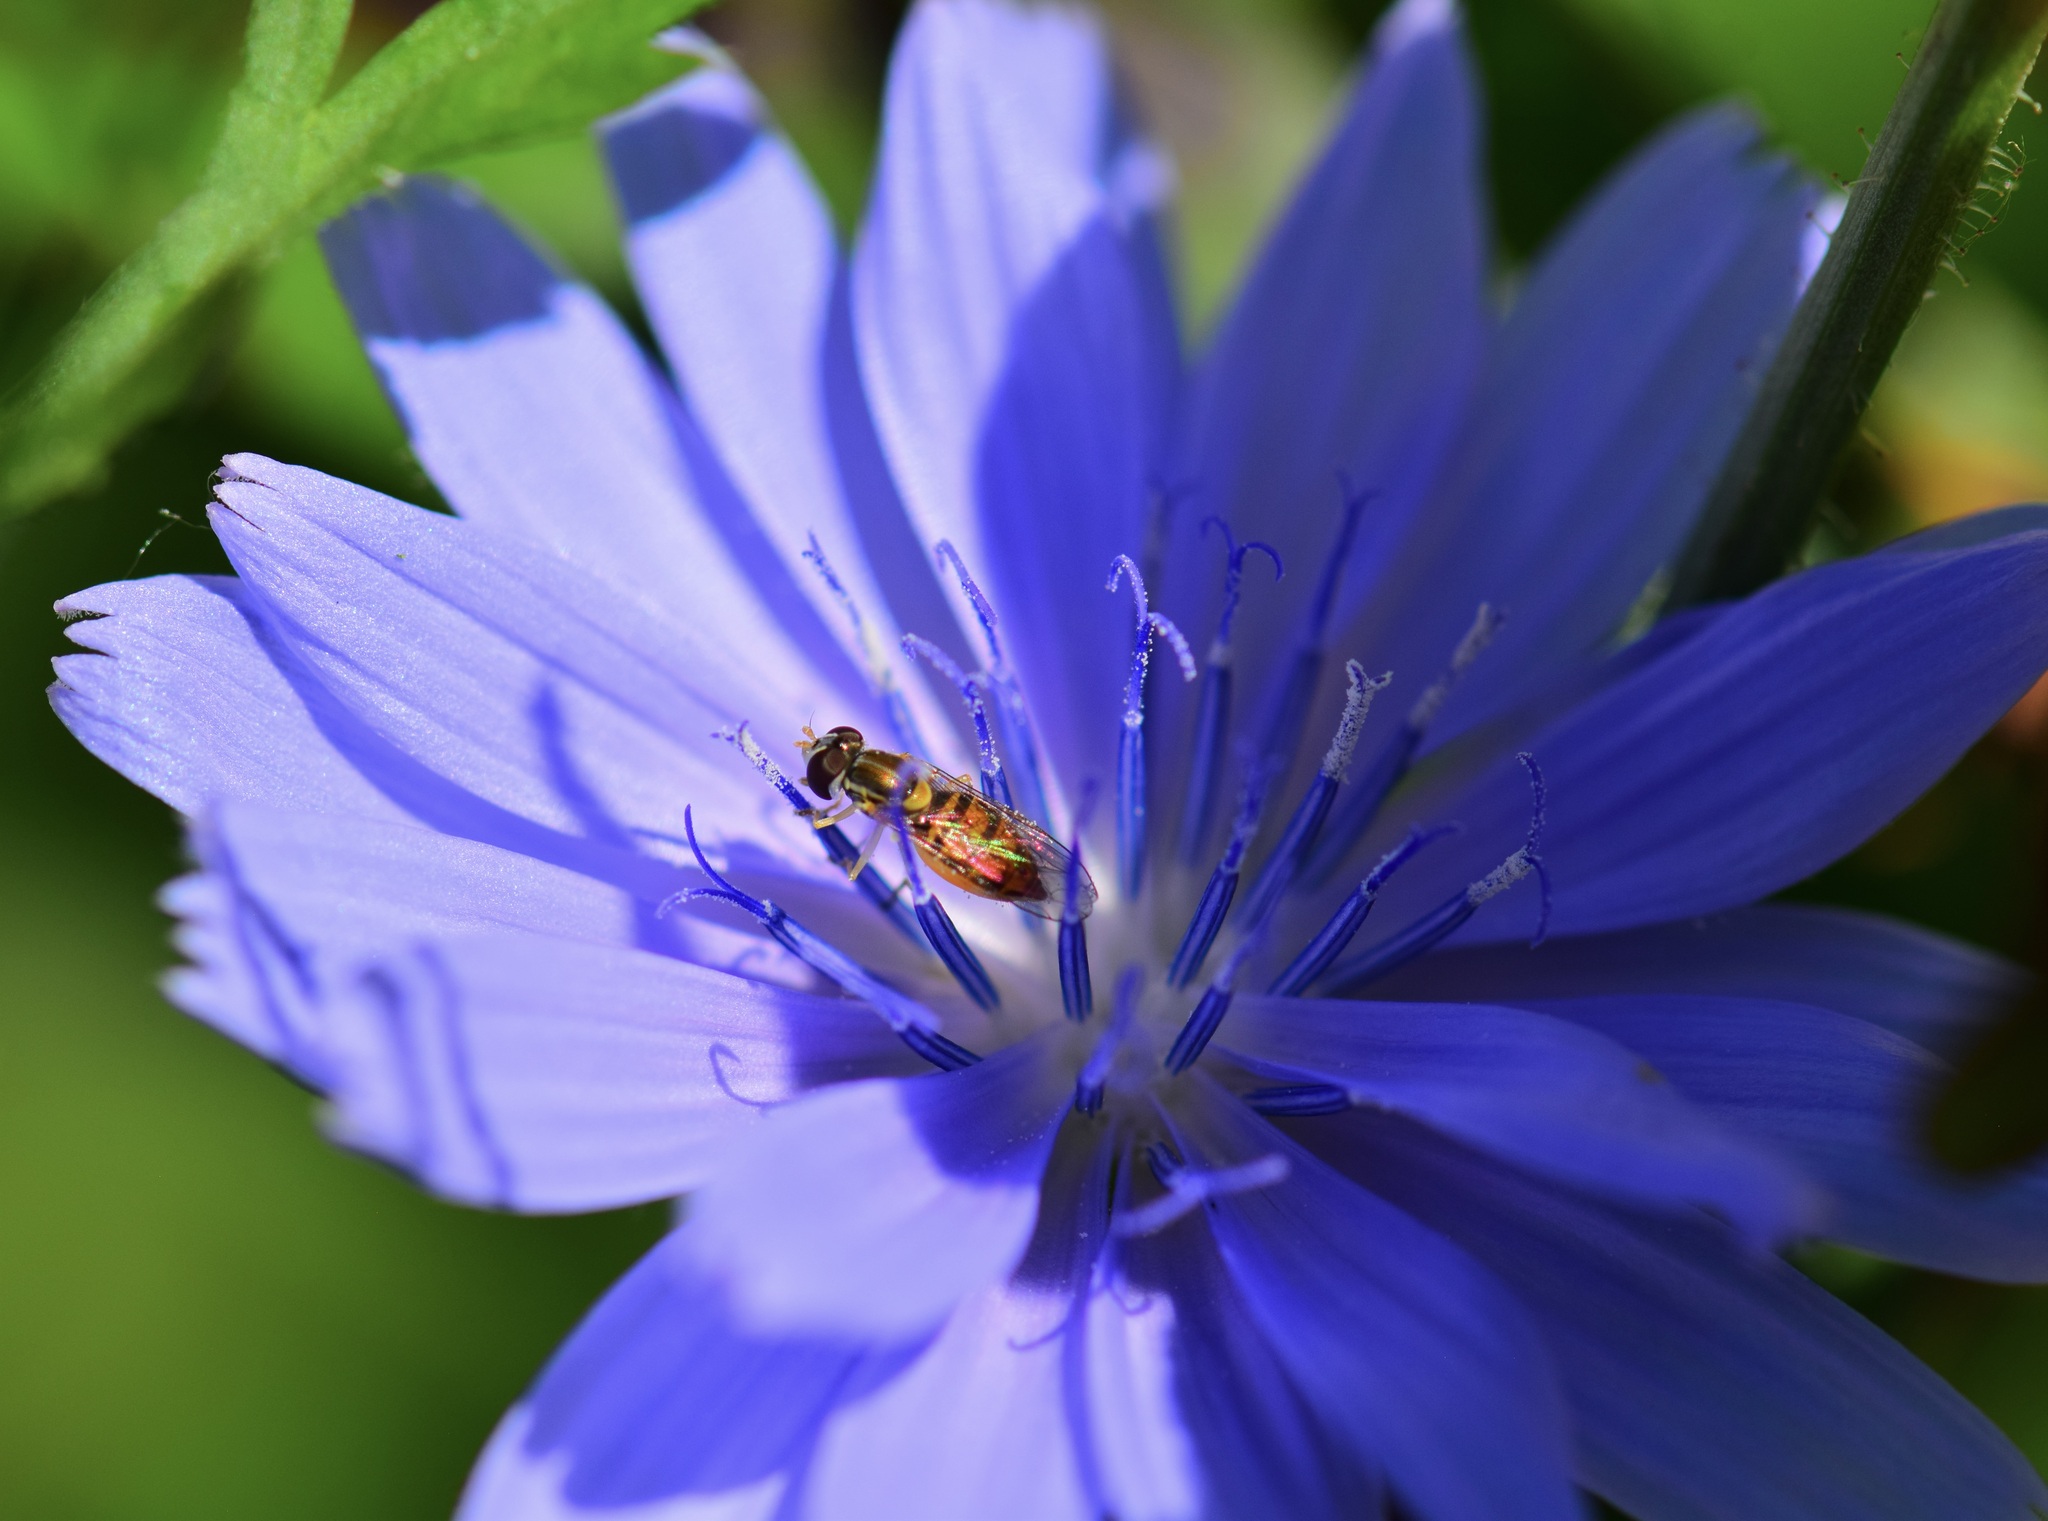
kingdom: Animalia
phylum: Arthropoda
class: Insecta
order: Diptera
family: Syrphidae
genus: Toxomerus
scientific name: Toxomerus marginatus
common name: Syrphid fly
